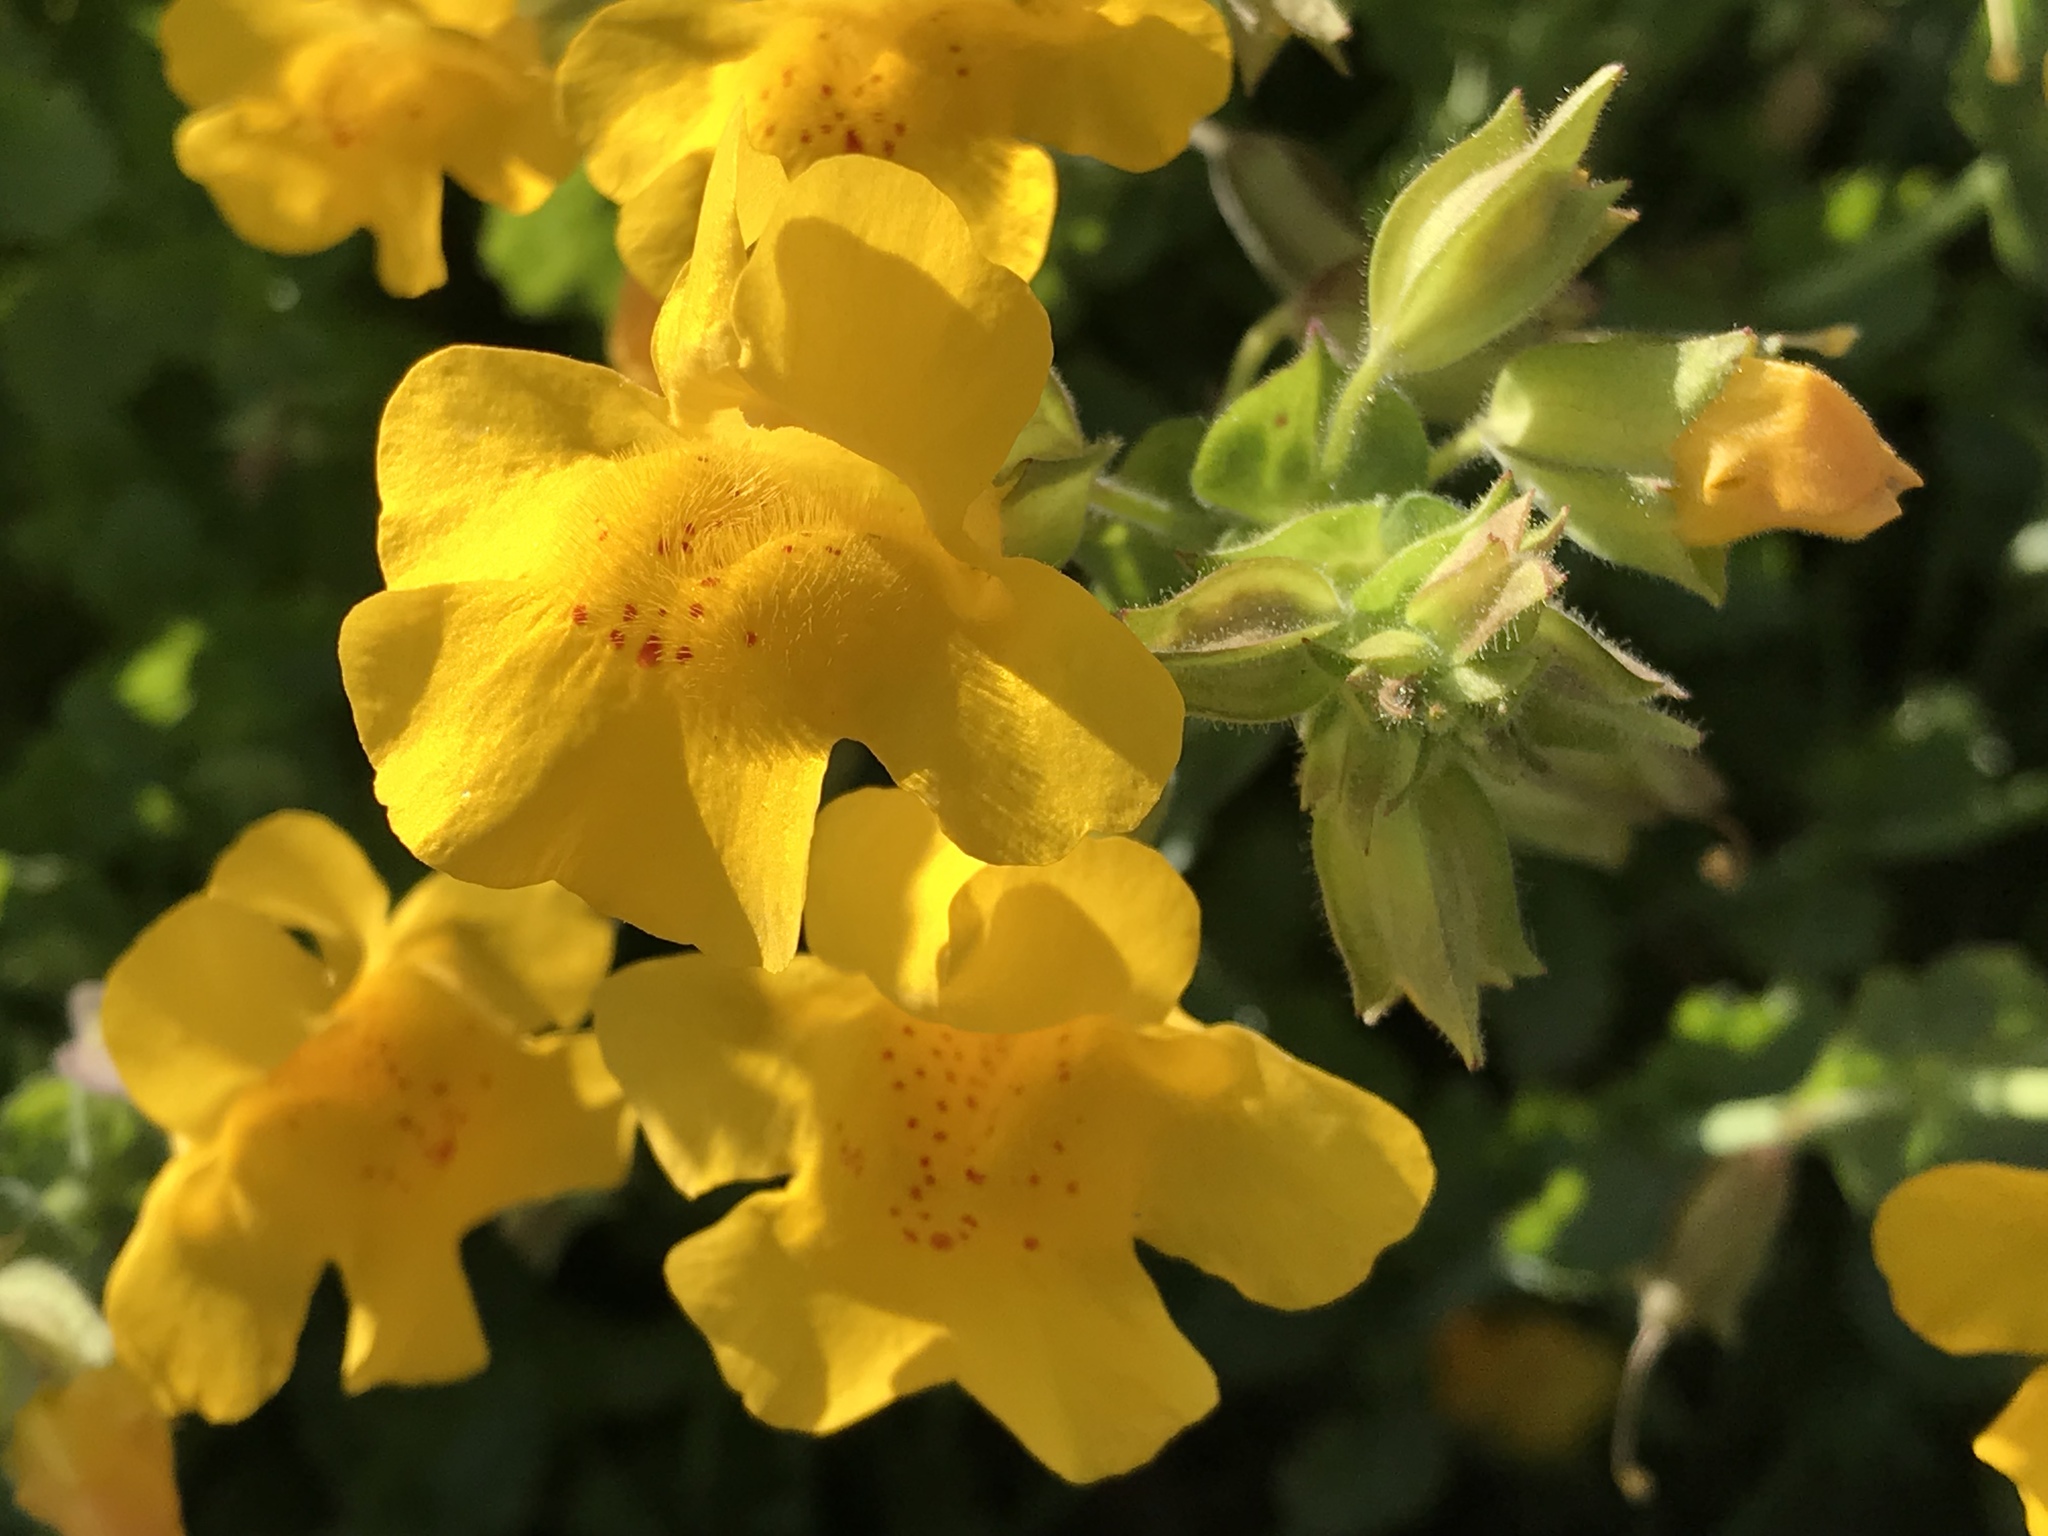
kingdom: Plantae
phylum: Tracheophyta
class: Magnoliopsida
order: Lamiales
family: Phrymaceae
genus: Erythranthe
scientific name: Erythranthe guttata
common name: Monkeyflower
